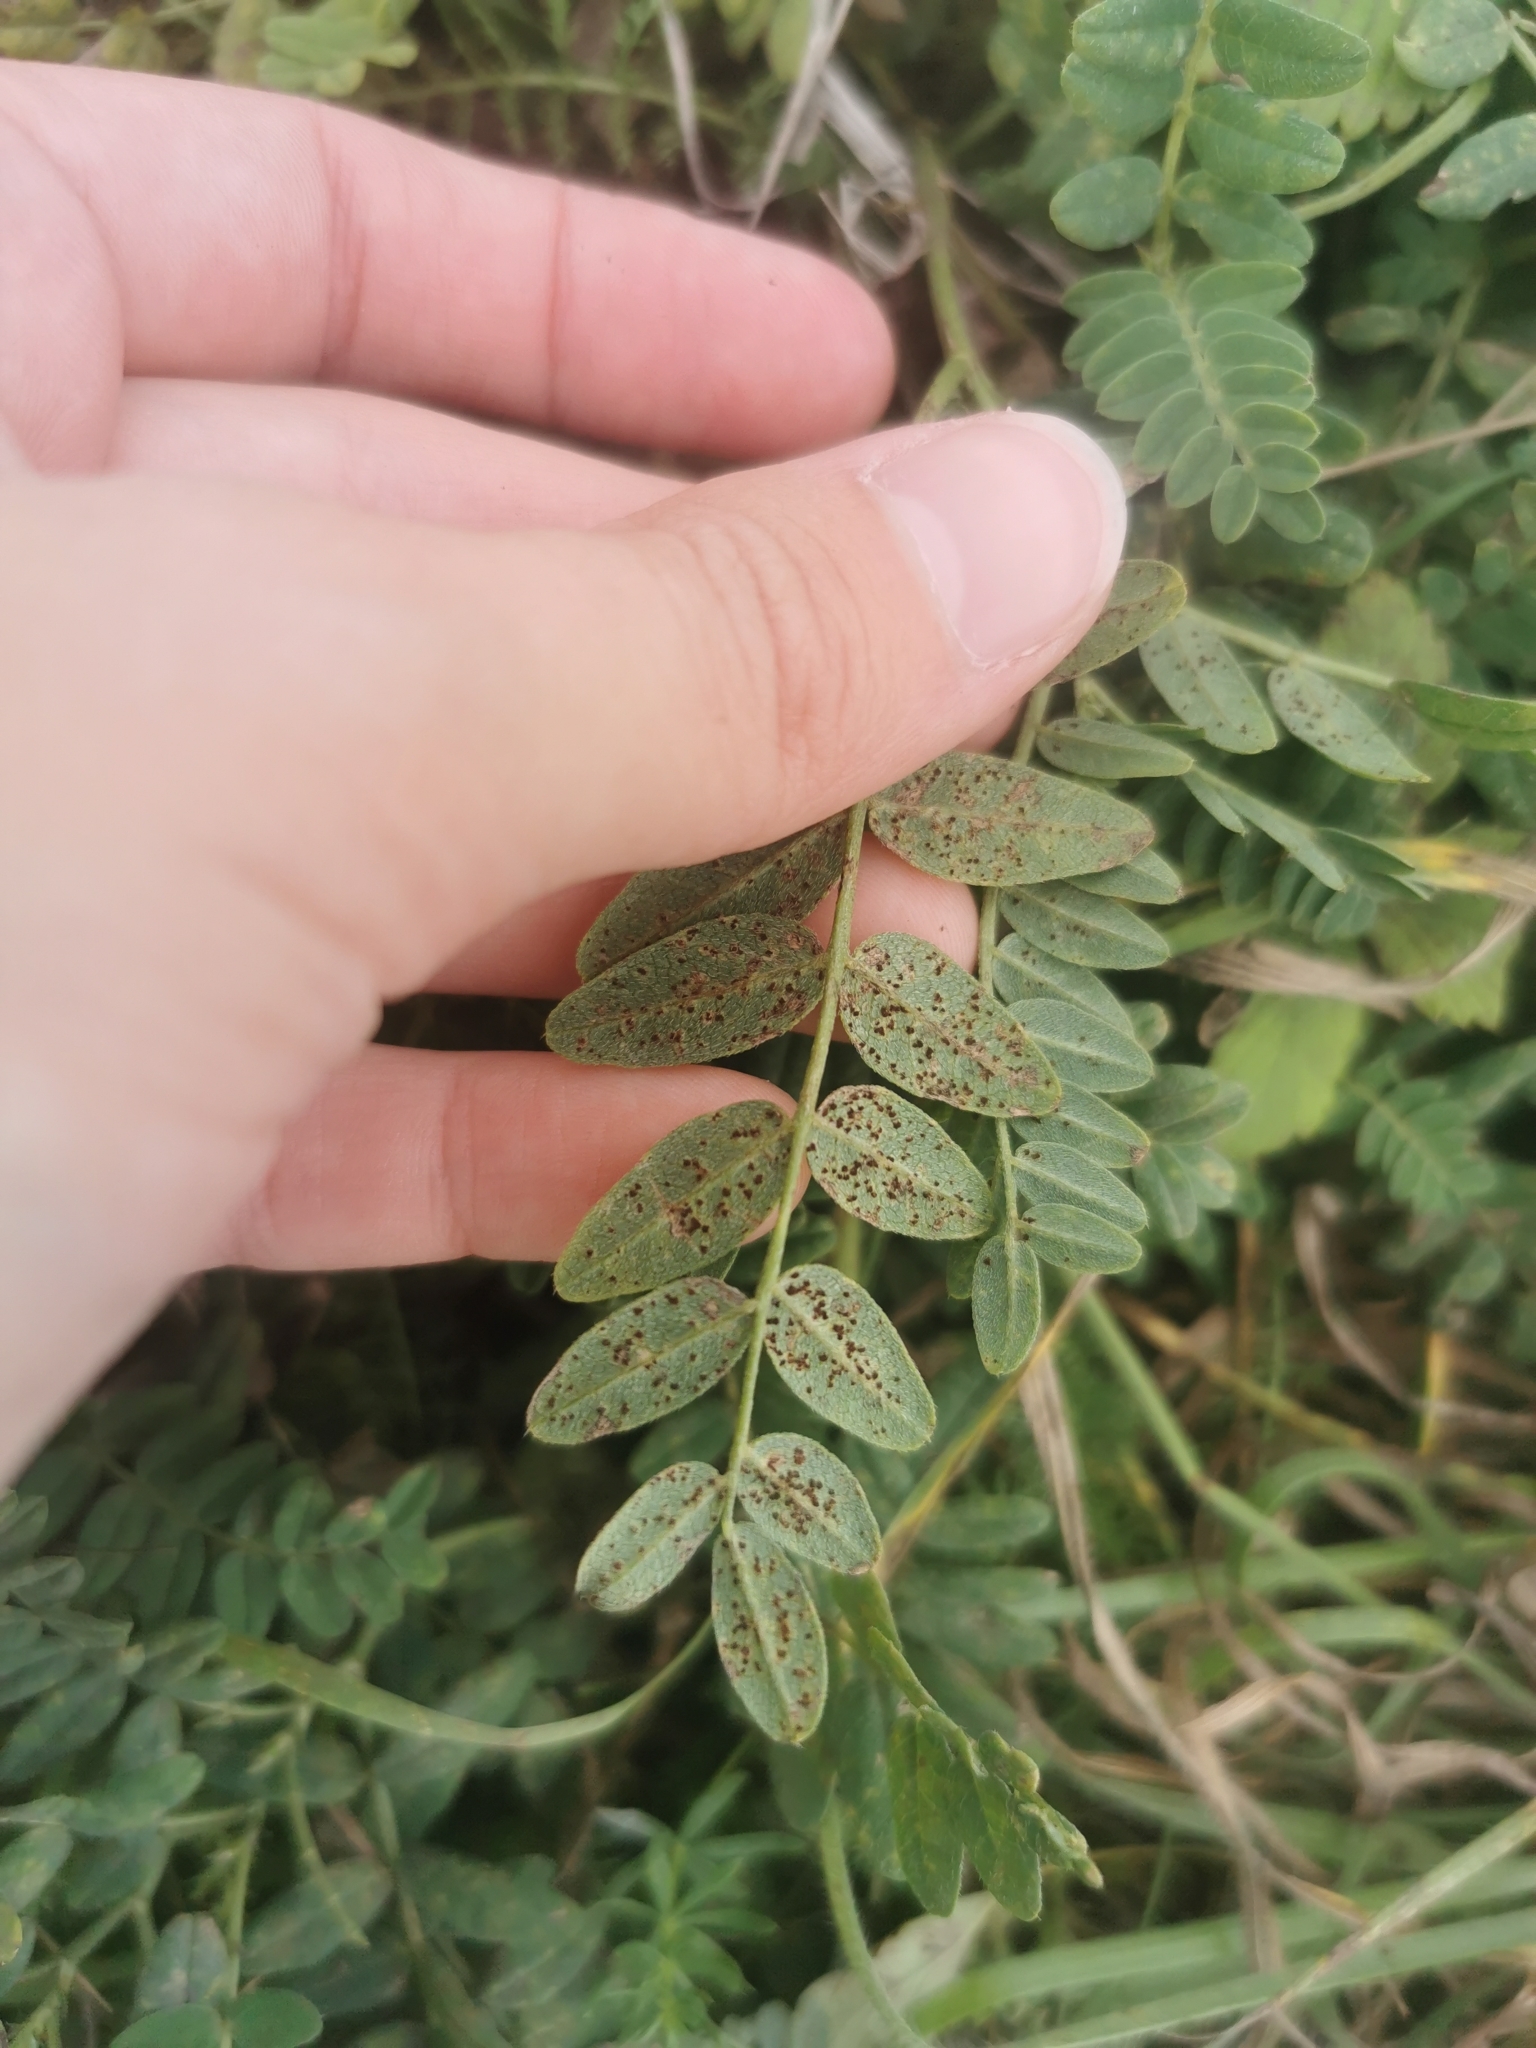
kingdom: Plantae
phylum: Tracheophyta
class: Magnoliopsida
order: Fabales
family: Fabaceae
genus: Astragalus
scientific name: Astragalus cicer
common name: Chick-pea milk-vetch
